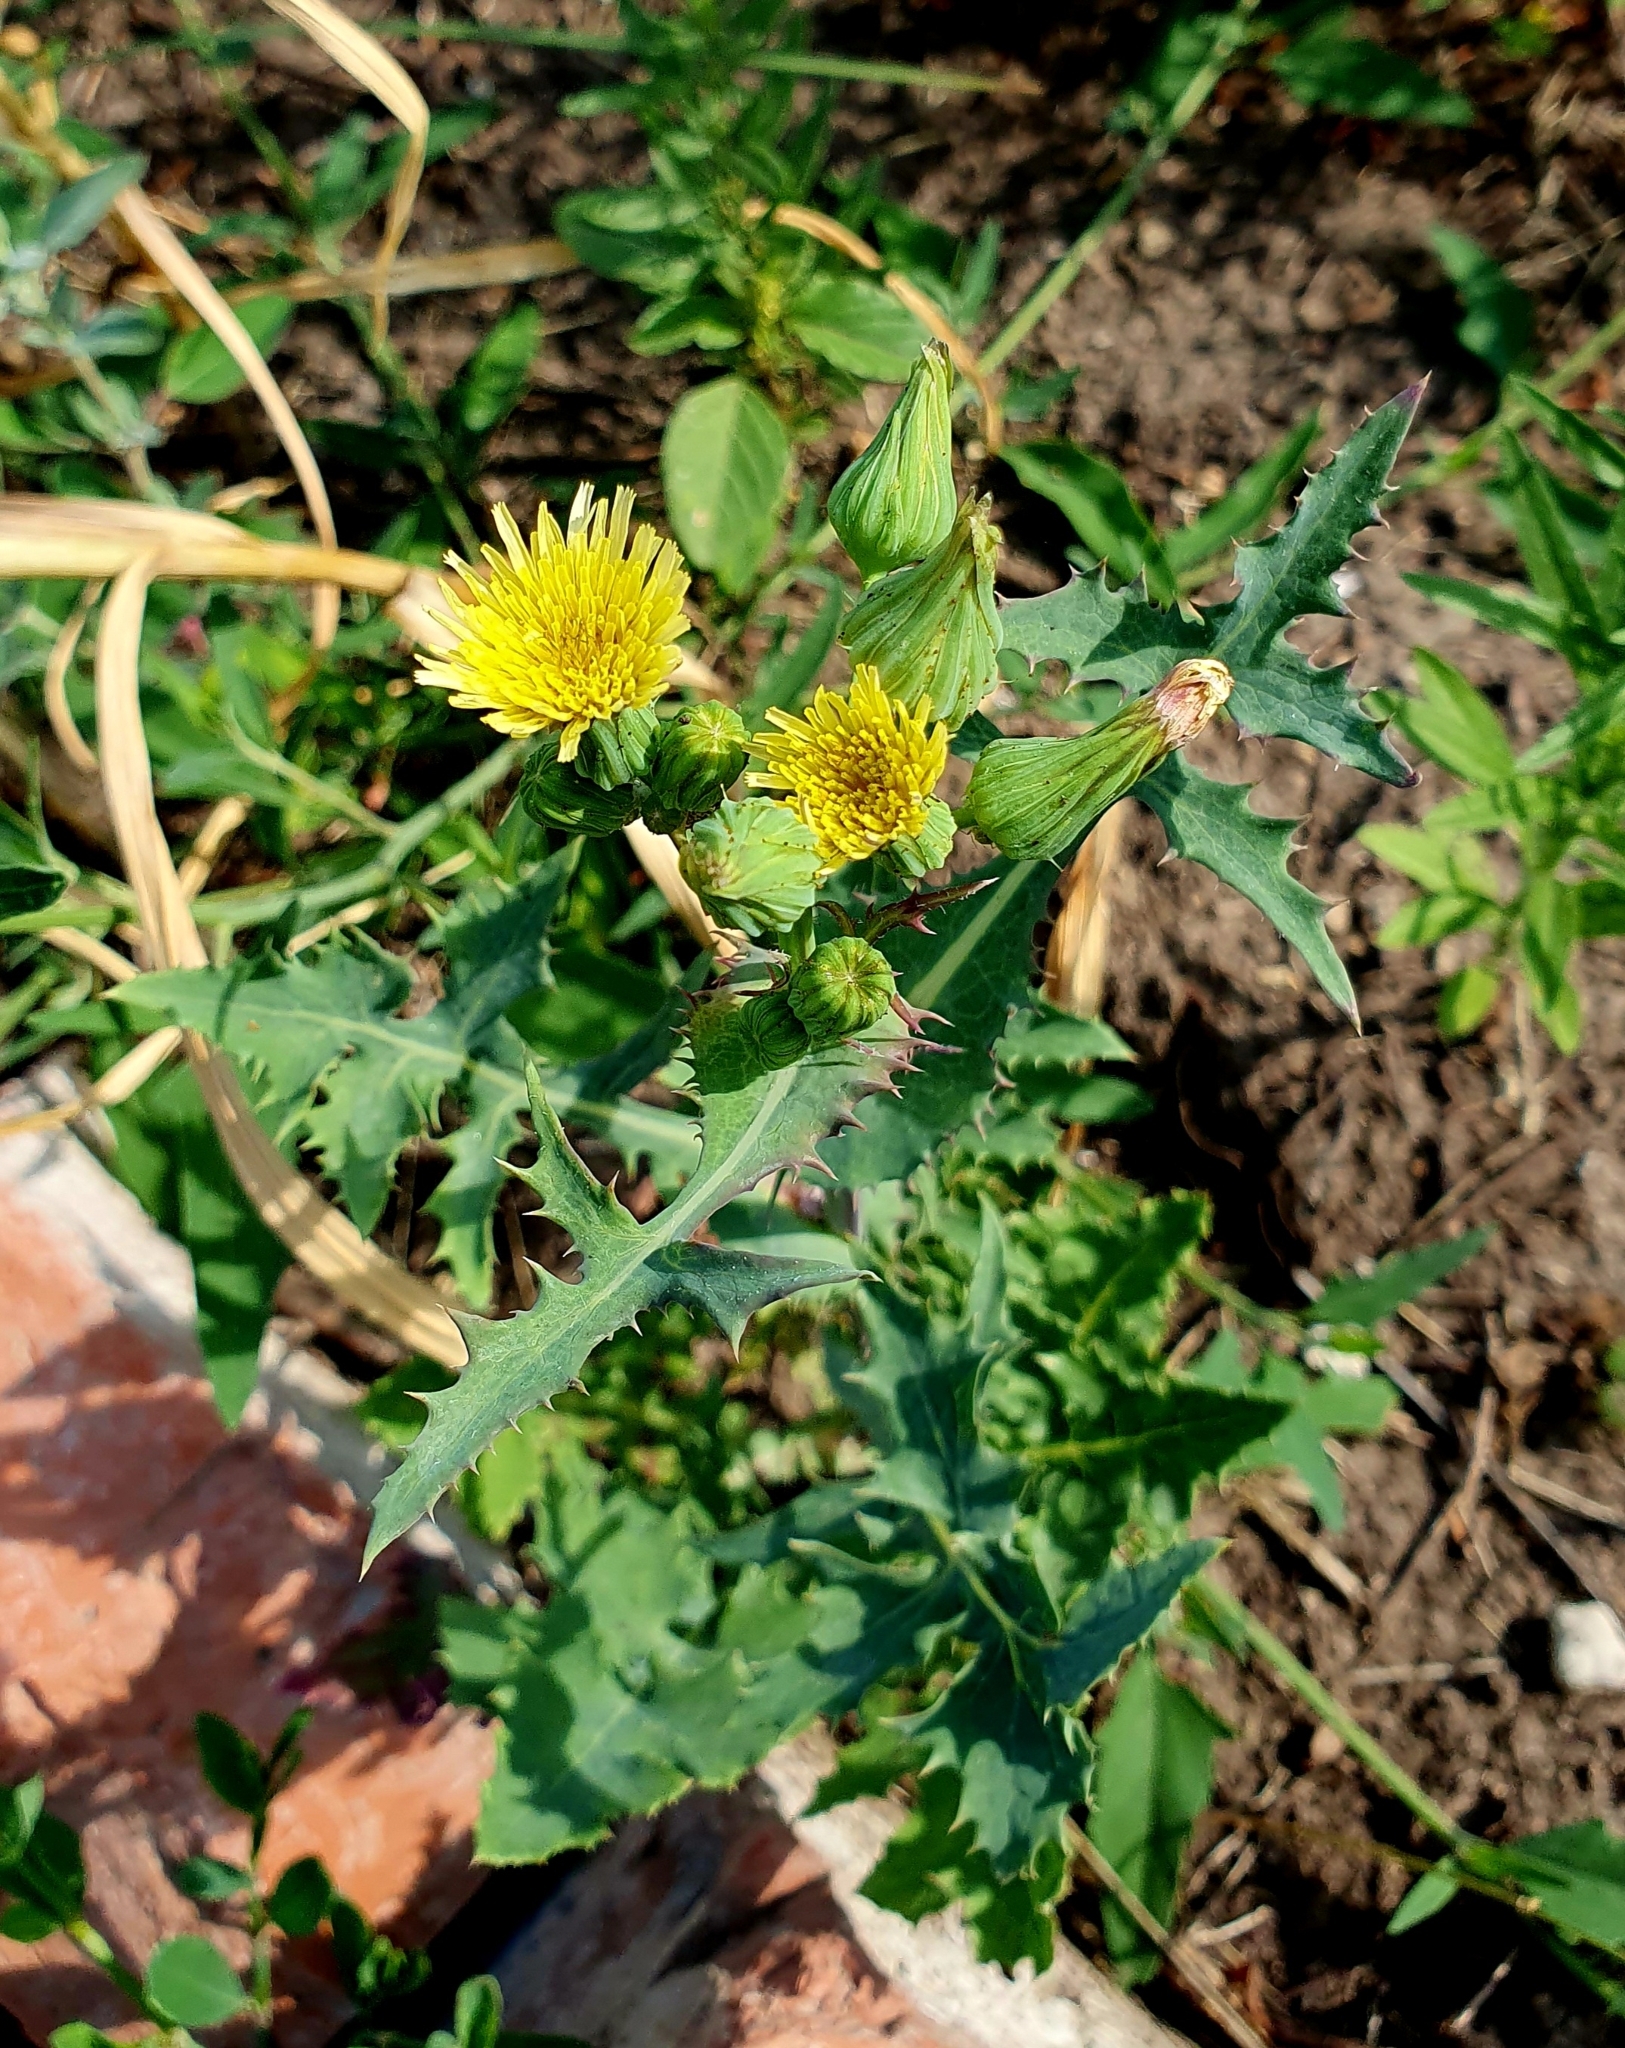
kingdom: Plantae
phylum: Tracheophyta
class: Magnoliopsida
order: Asterales
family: Asteraceae
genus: Sonchus
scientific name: Sonchus oleraceus
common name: Common sowthistle
